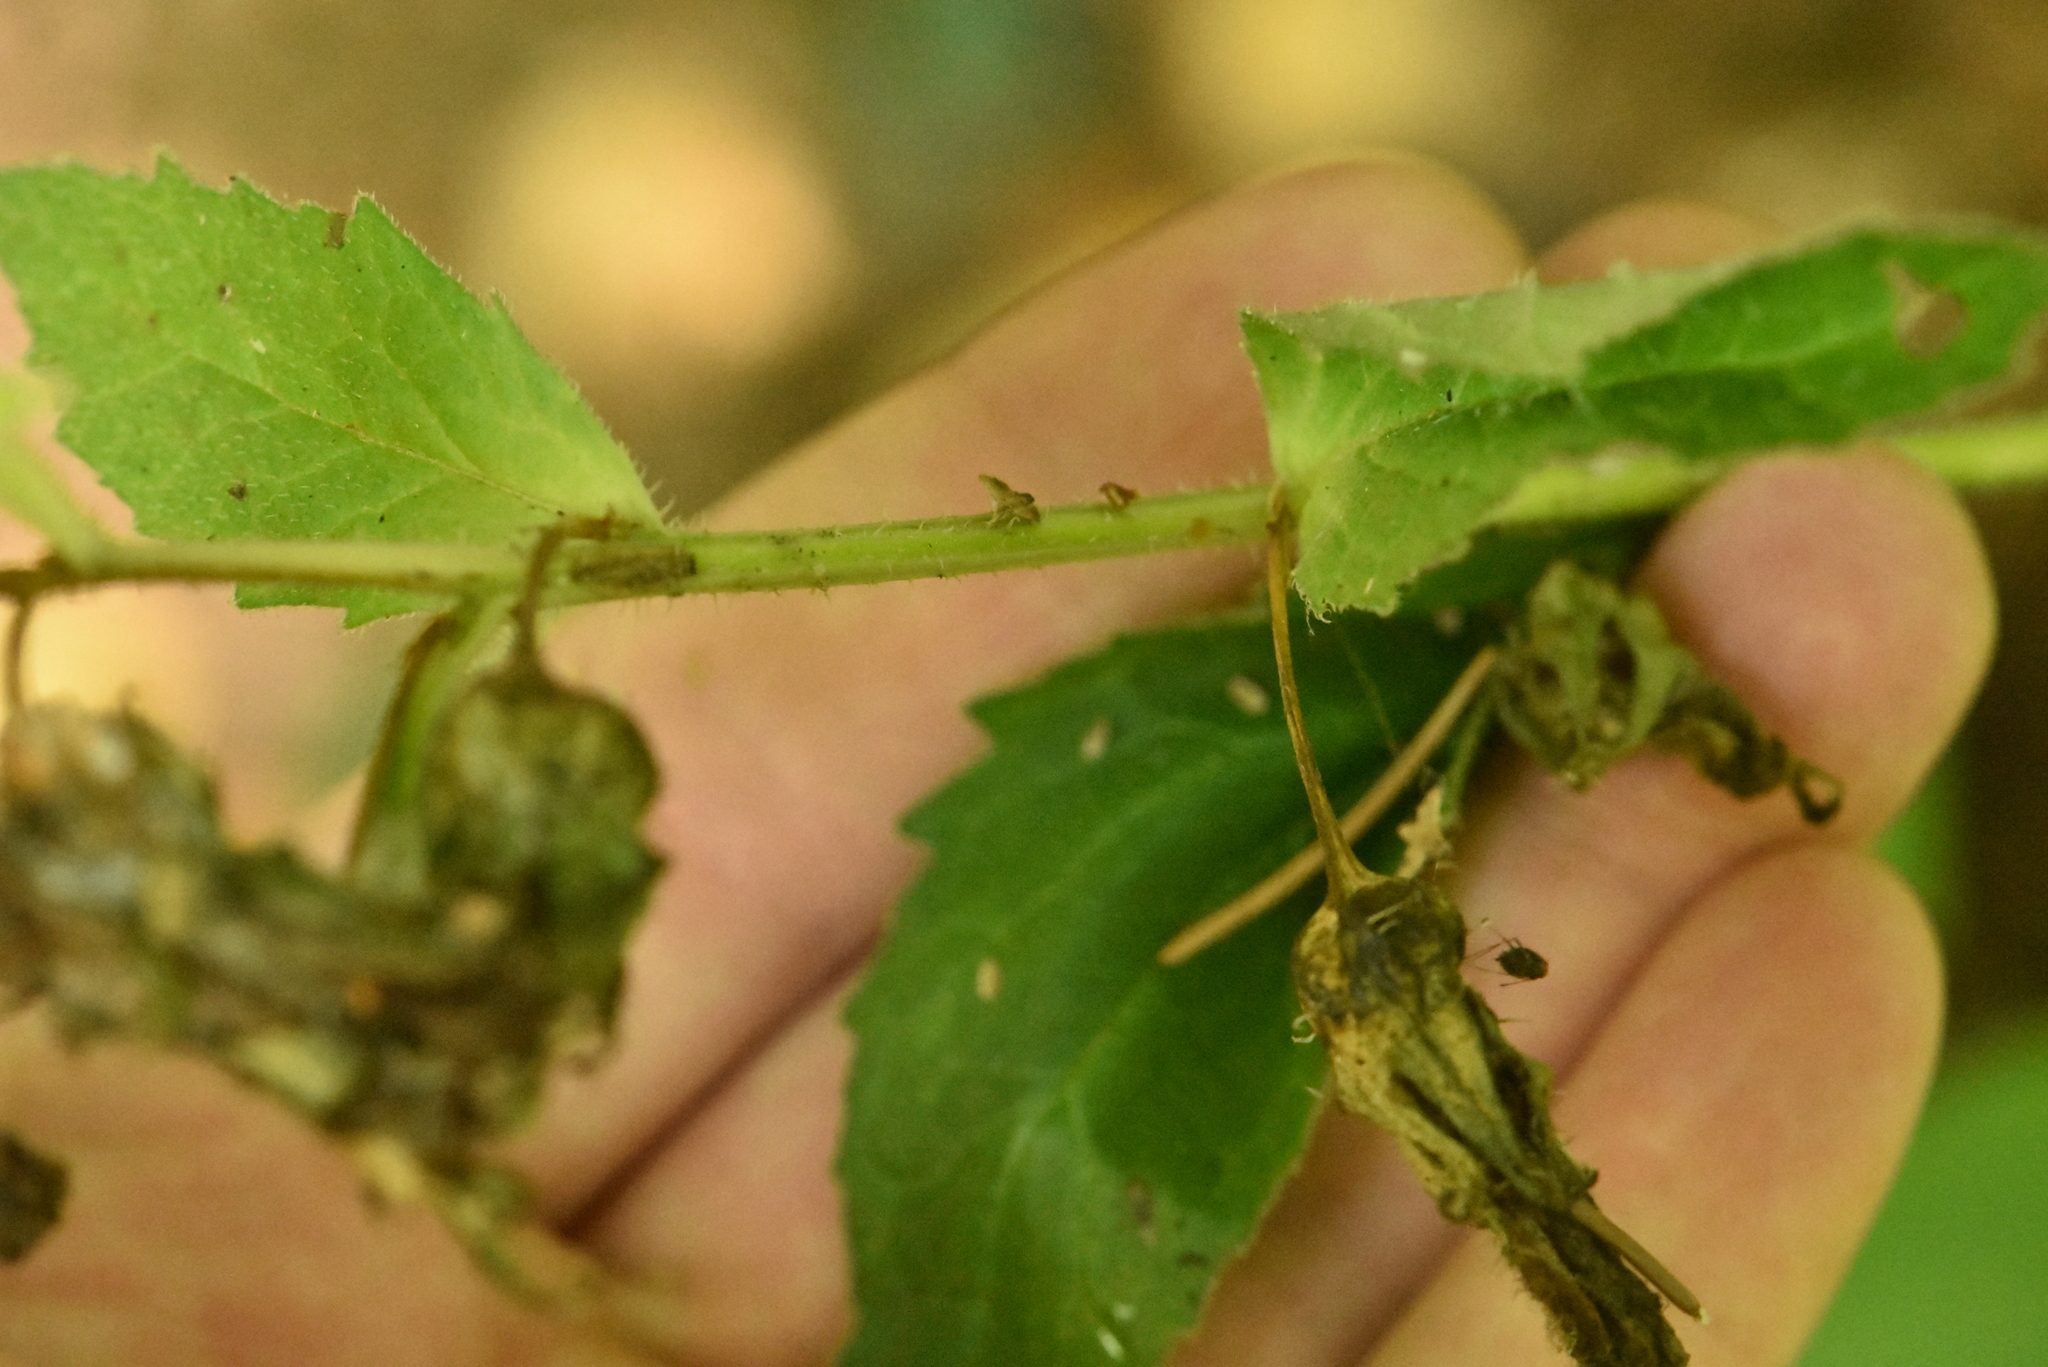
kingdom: Plantae
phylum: Tracheophyta
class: Magnoliopsida
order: Asterales
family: Campanulaceae
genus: Campanula
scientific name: Campanula trachelium
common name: Nettle-leaved bellflower
